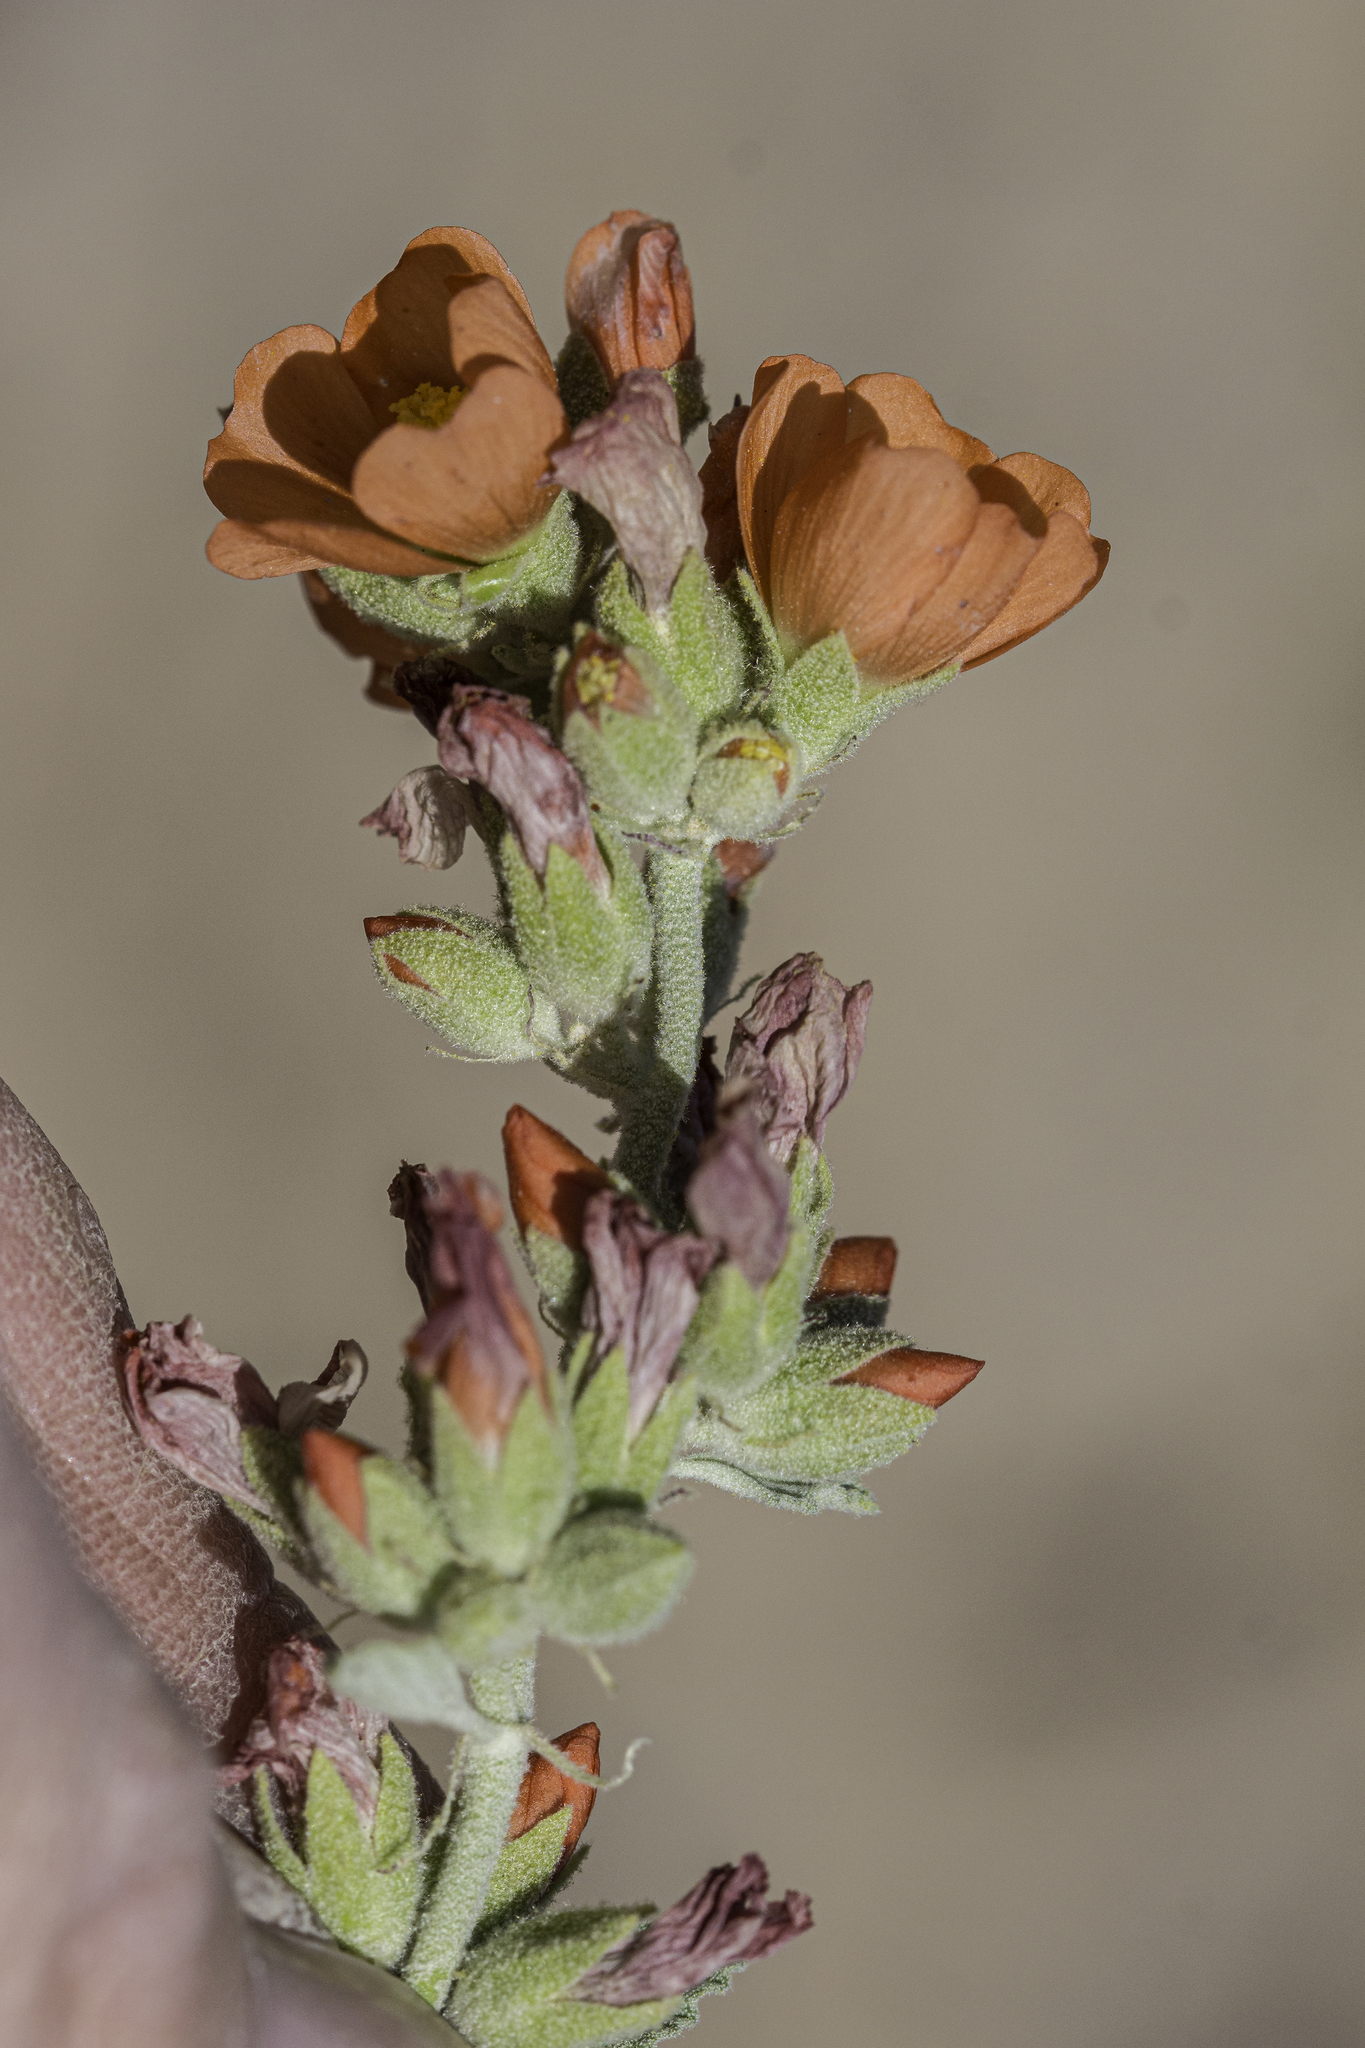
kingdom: Plantae
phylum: Tracheophyta
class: Magnoliopsida
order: Malvales
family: Malvaceae
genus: Sphaeralcea
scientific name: Sphaeralcea parvifolia
